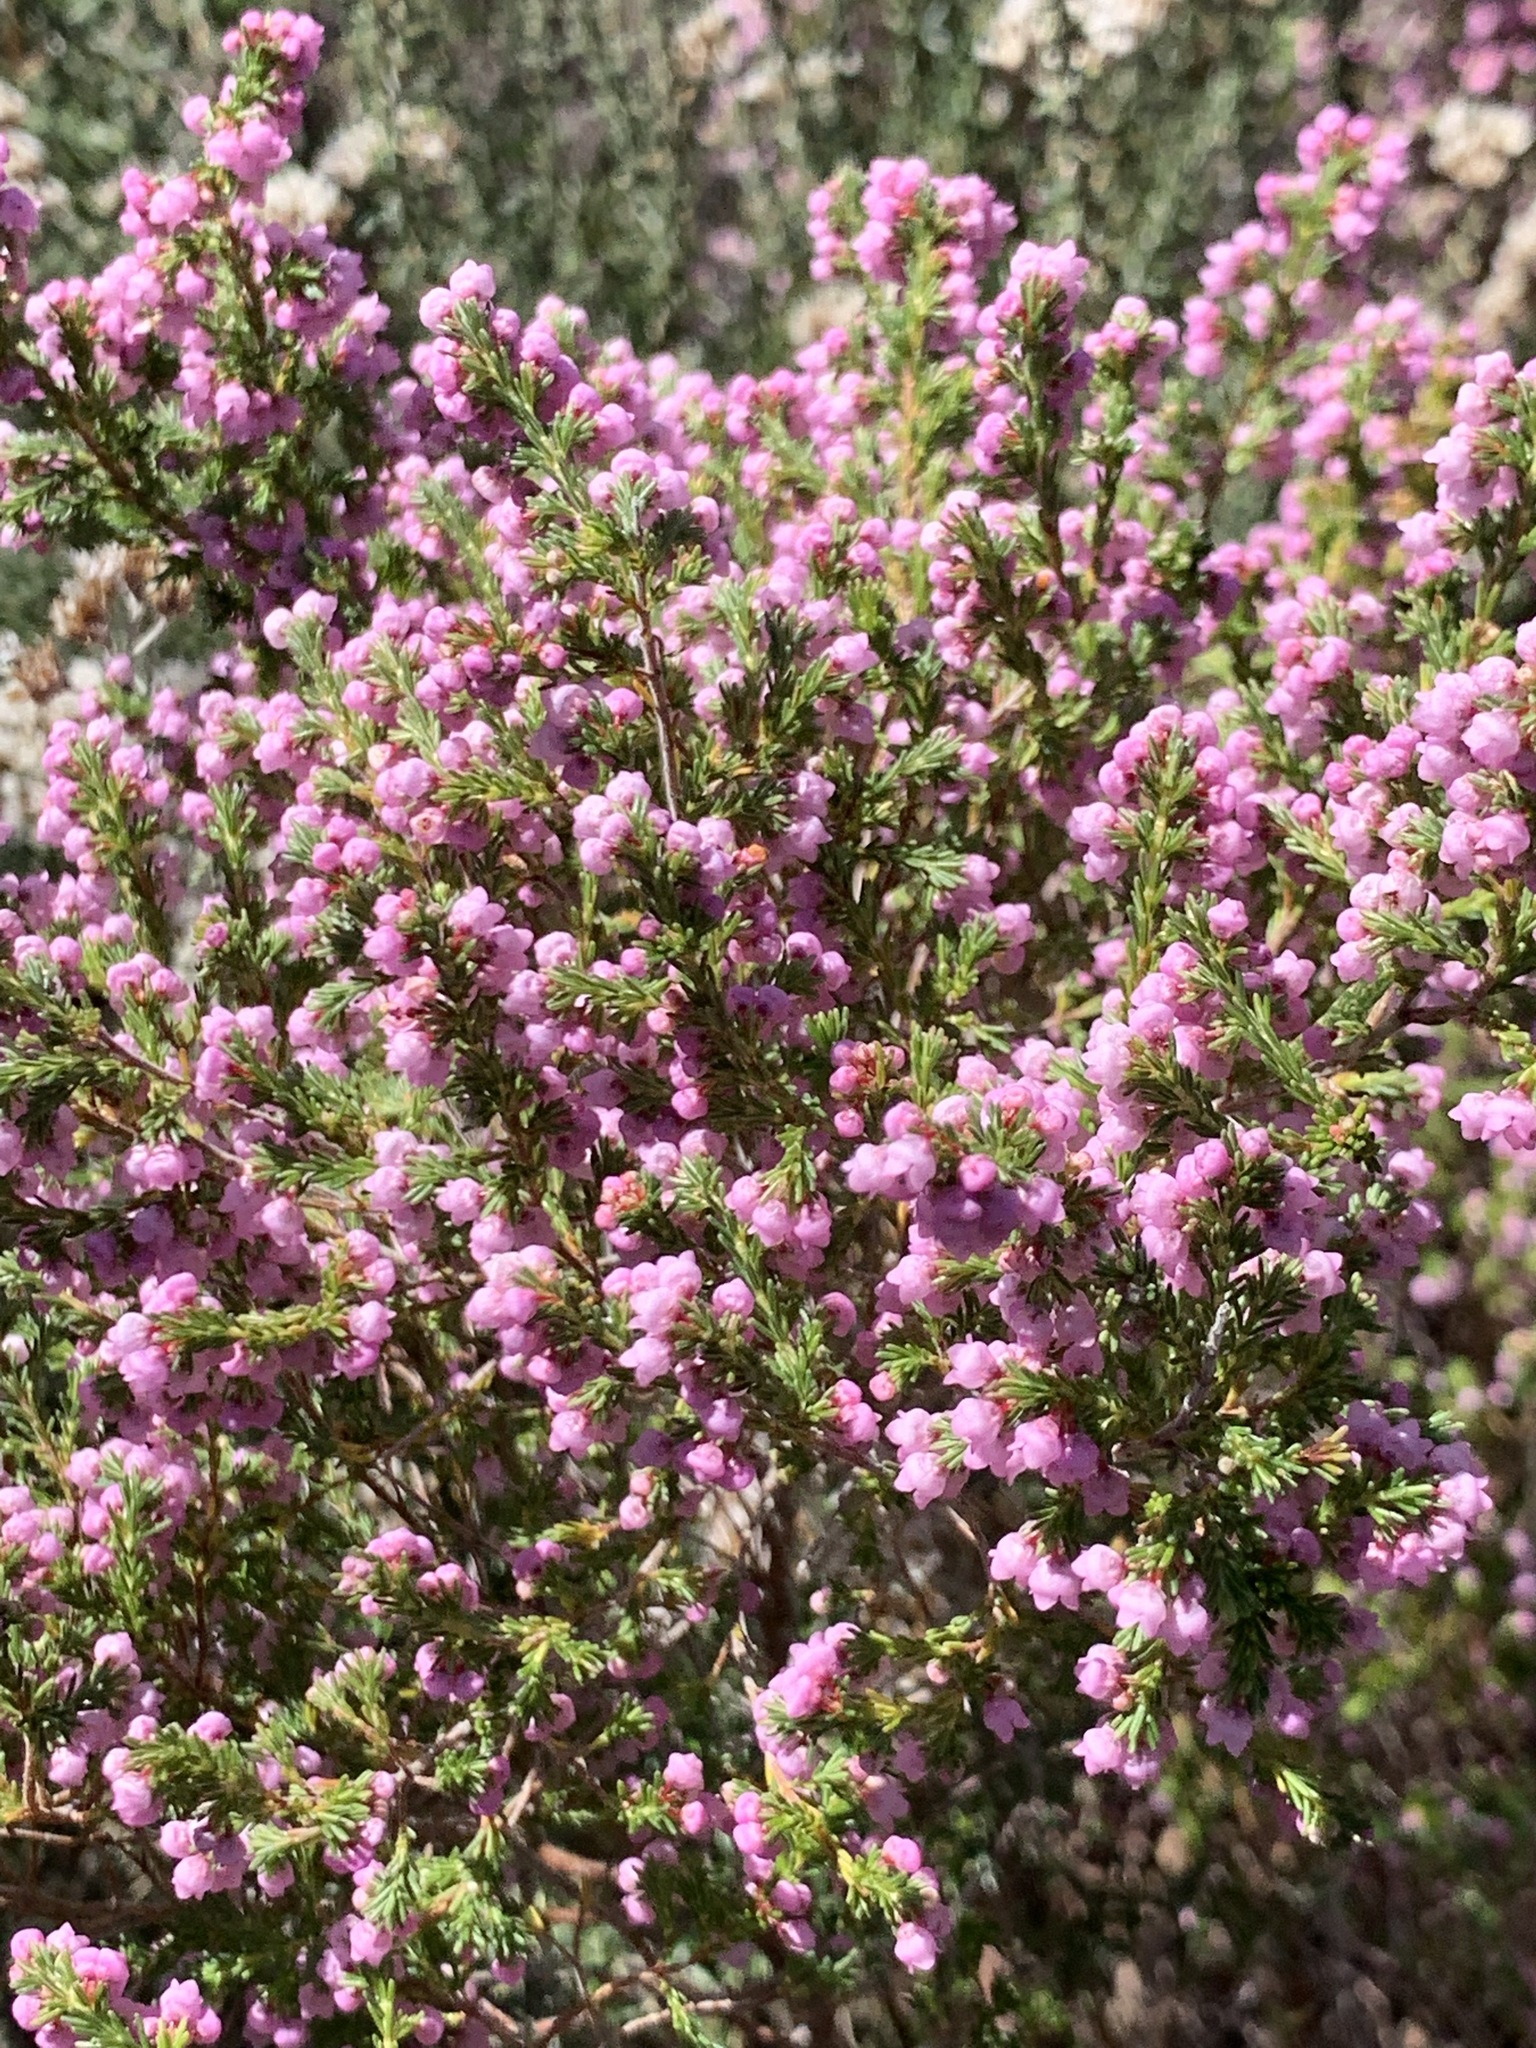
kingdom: Plantae
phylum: Tracheophyta
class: Magnoliopsida
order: Ericales
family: Ericaceae
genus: Erica
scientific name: Erica mauritanica
